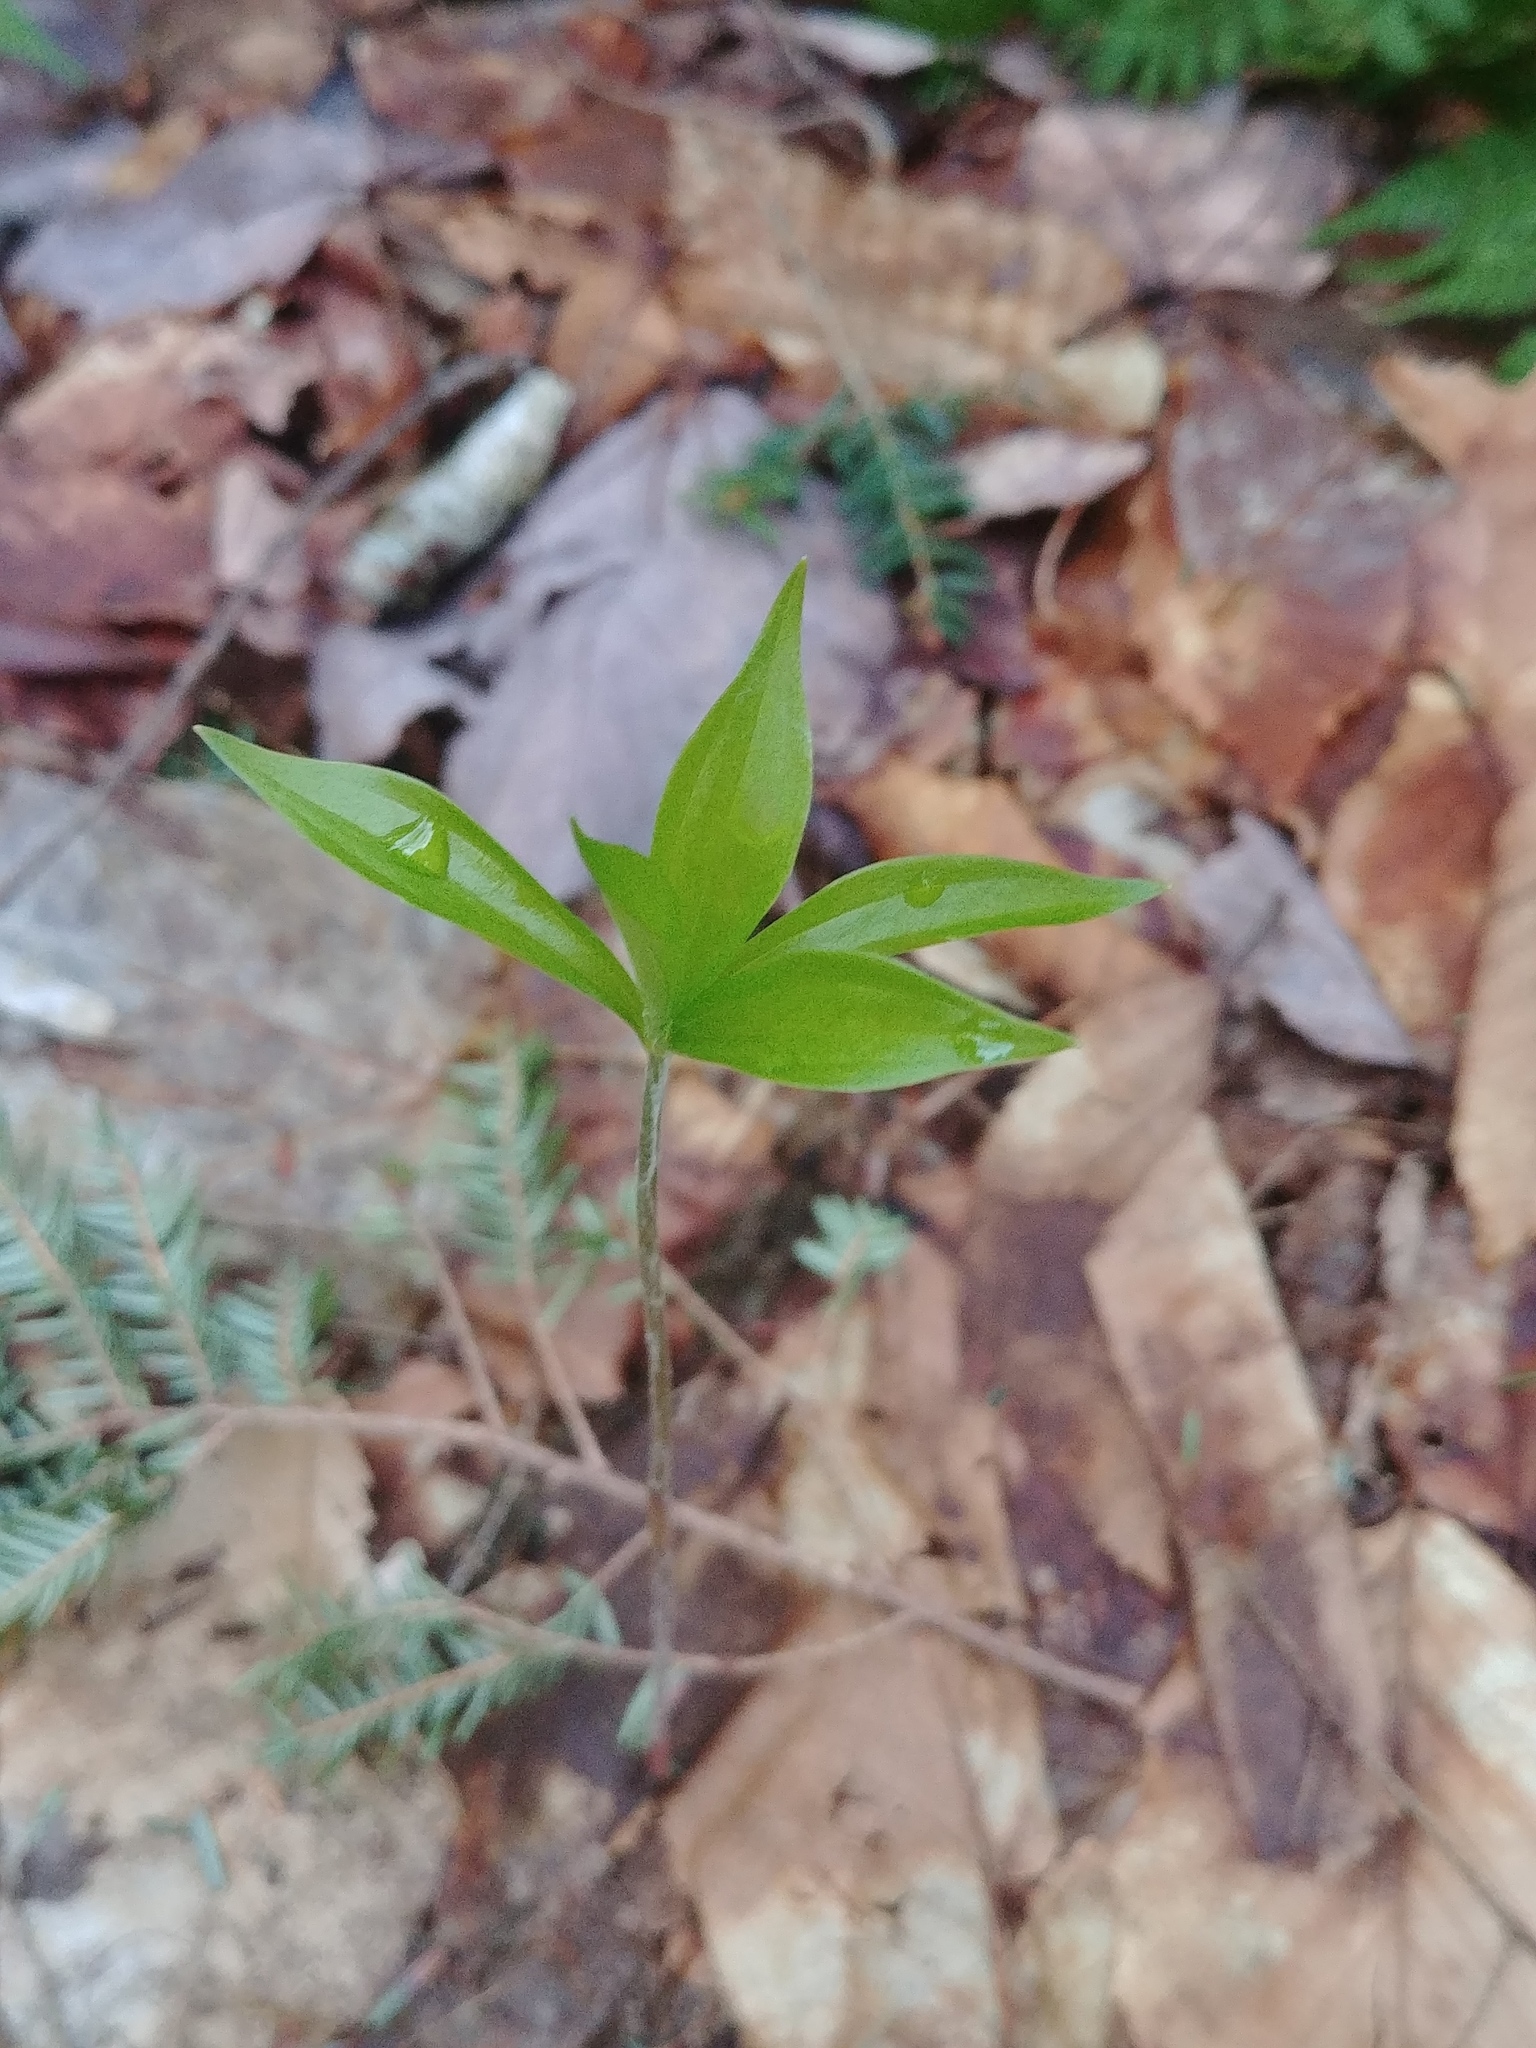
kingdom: Plantae
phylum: Tracheophyta
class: Liliopsida
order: Liliales
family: Liliaceae
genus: Medeola
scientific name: Medeola virginiana
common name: Indian cucumber-root
